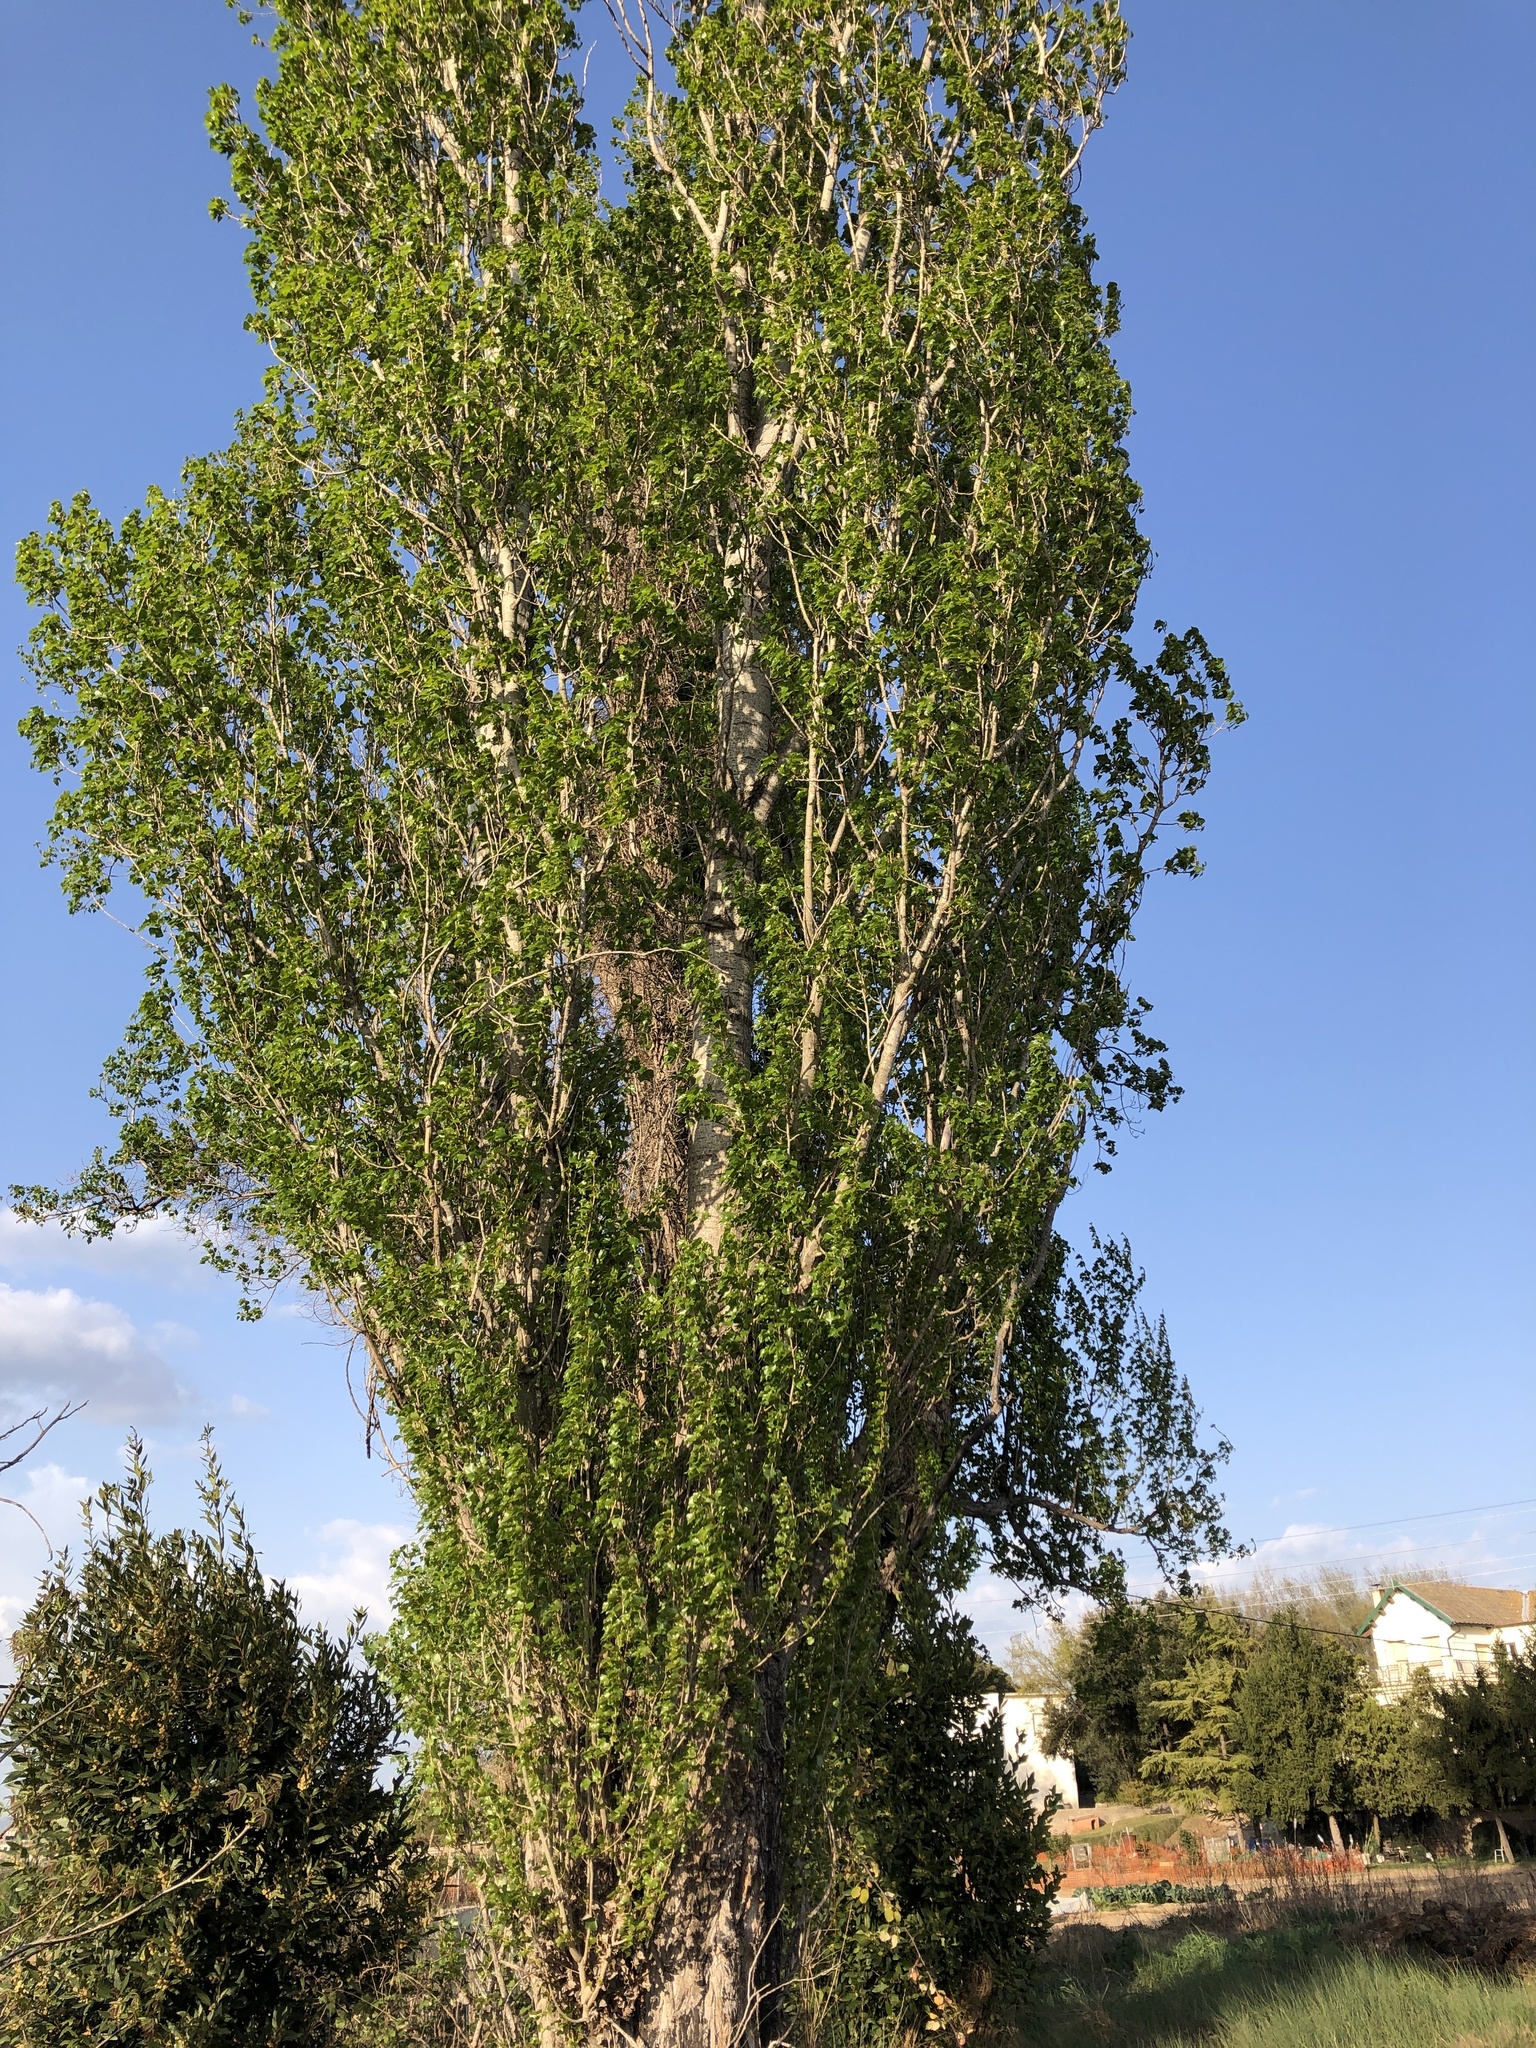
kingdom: Plantae
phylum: Tracheophyta
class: Magnoliopsida
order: Malpighiales
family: Salicaceae
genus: Populus
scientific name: Populus nigra
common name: Black poplar
